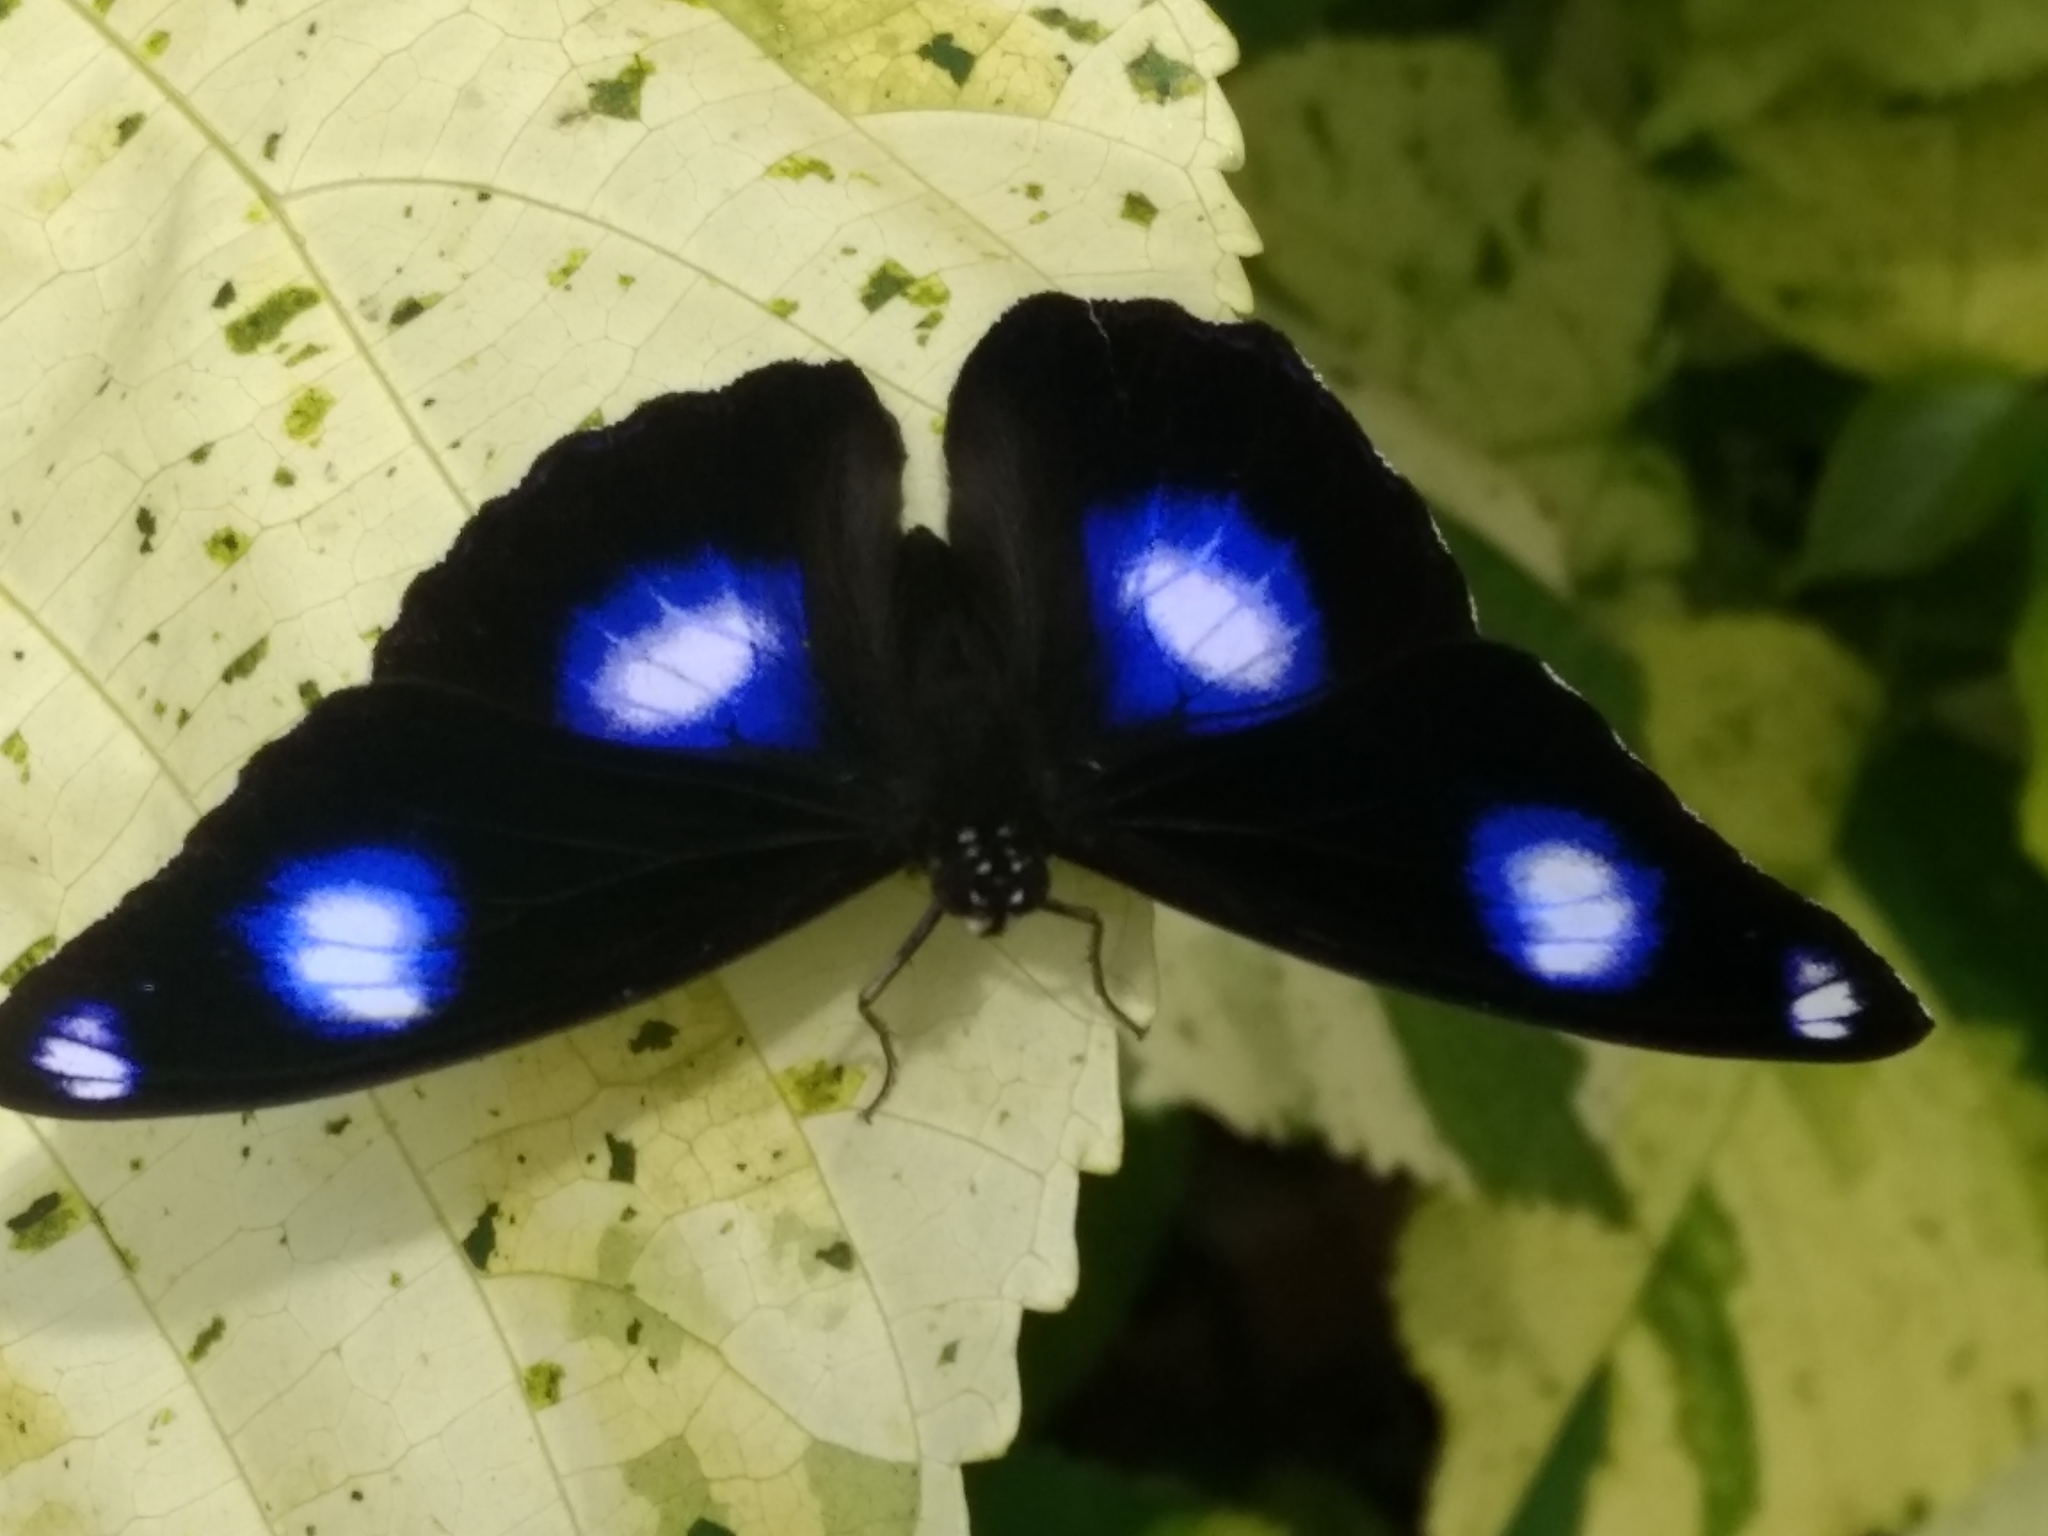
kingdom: Animalia
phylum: Arthropoda
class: Insecta
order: Lepidoptera
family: Nymphalidae
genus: Hypolimnas
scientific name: Hypolimnas bolina
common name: Great eggfly
